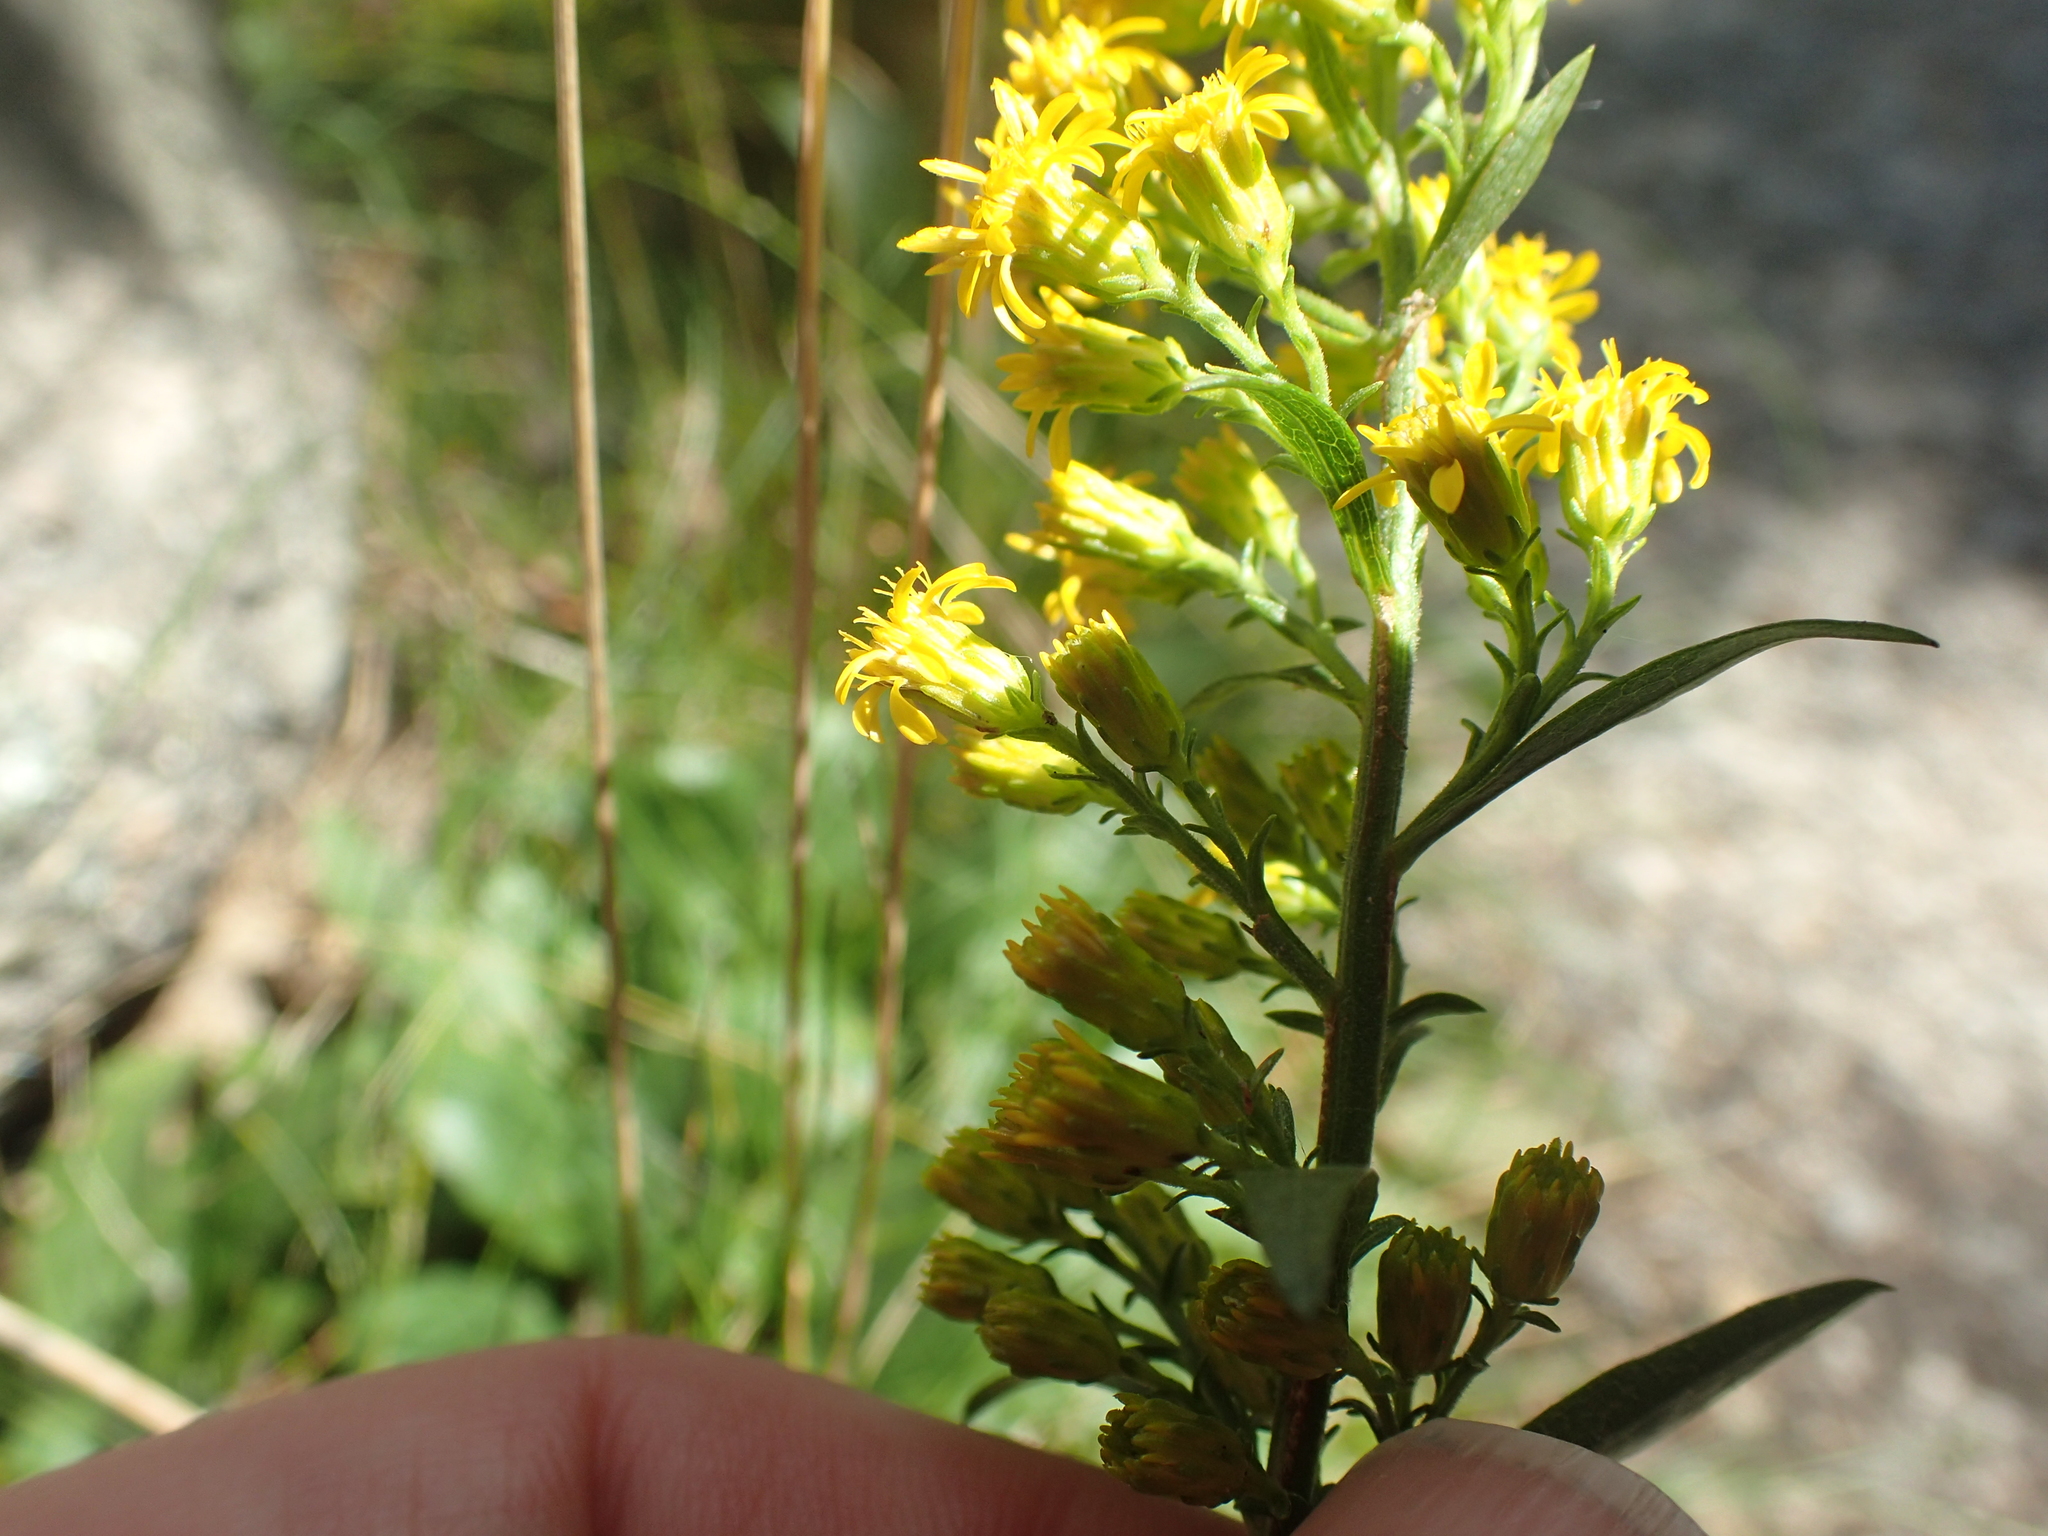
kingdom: Plantae
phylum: Tracheophyta
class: Magnoliopsida
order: Asterales
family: Asteraceae
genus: Solidago
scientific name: Solidago simplex
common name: Sticky goldenrod
